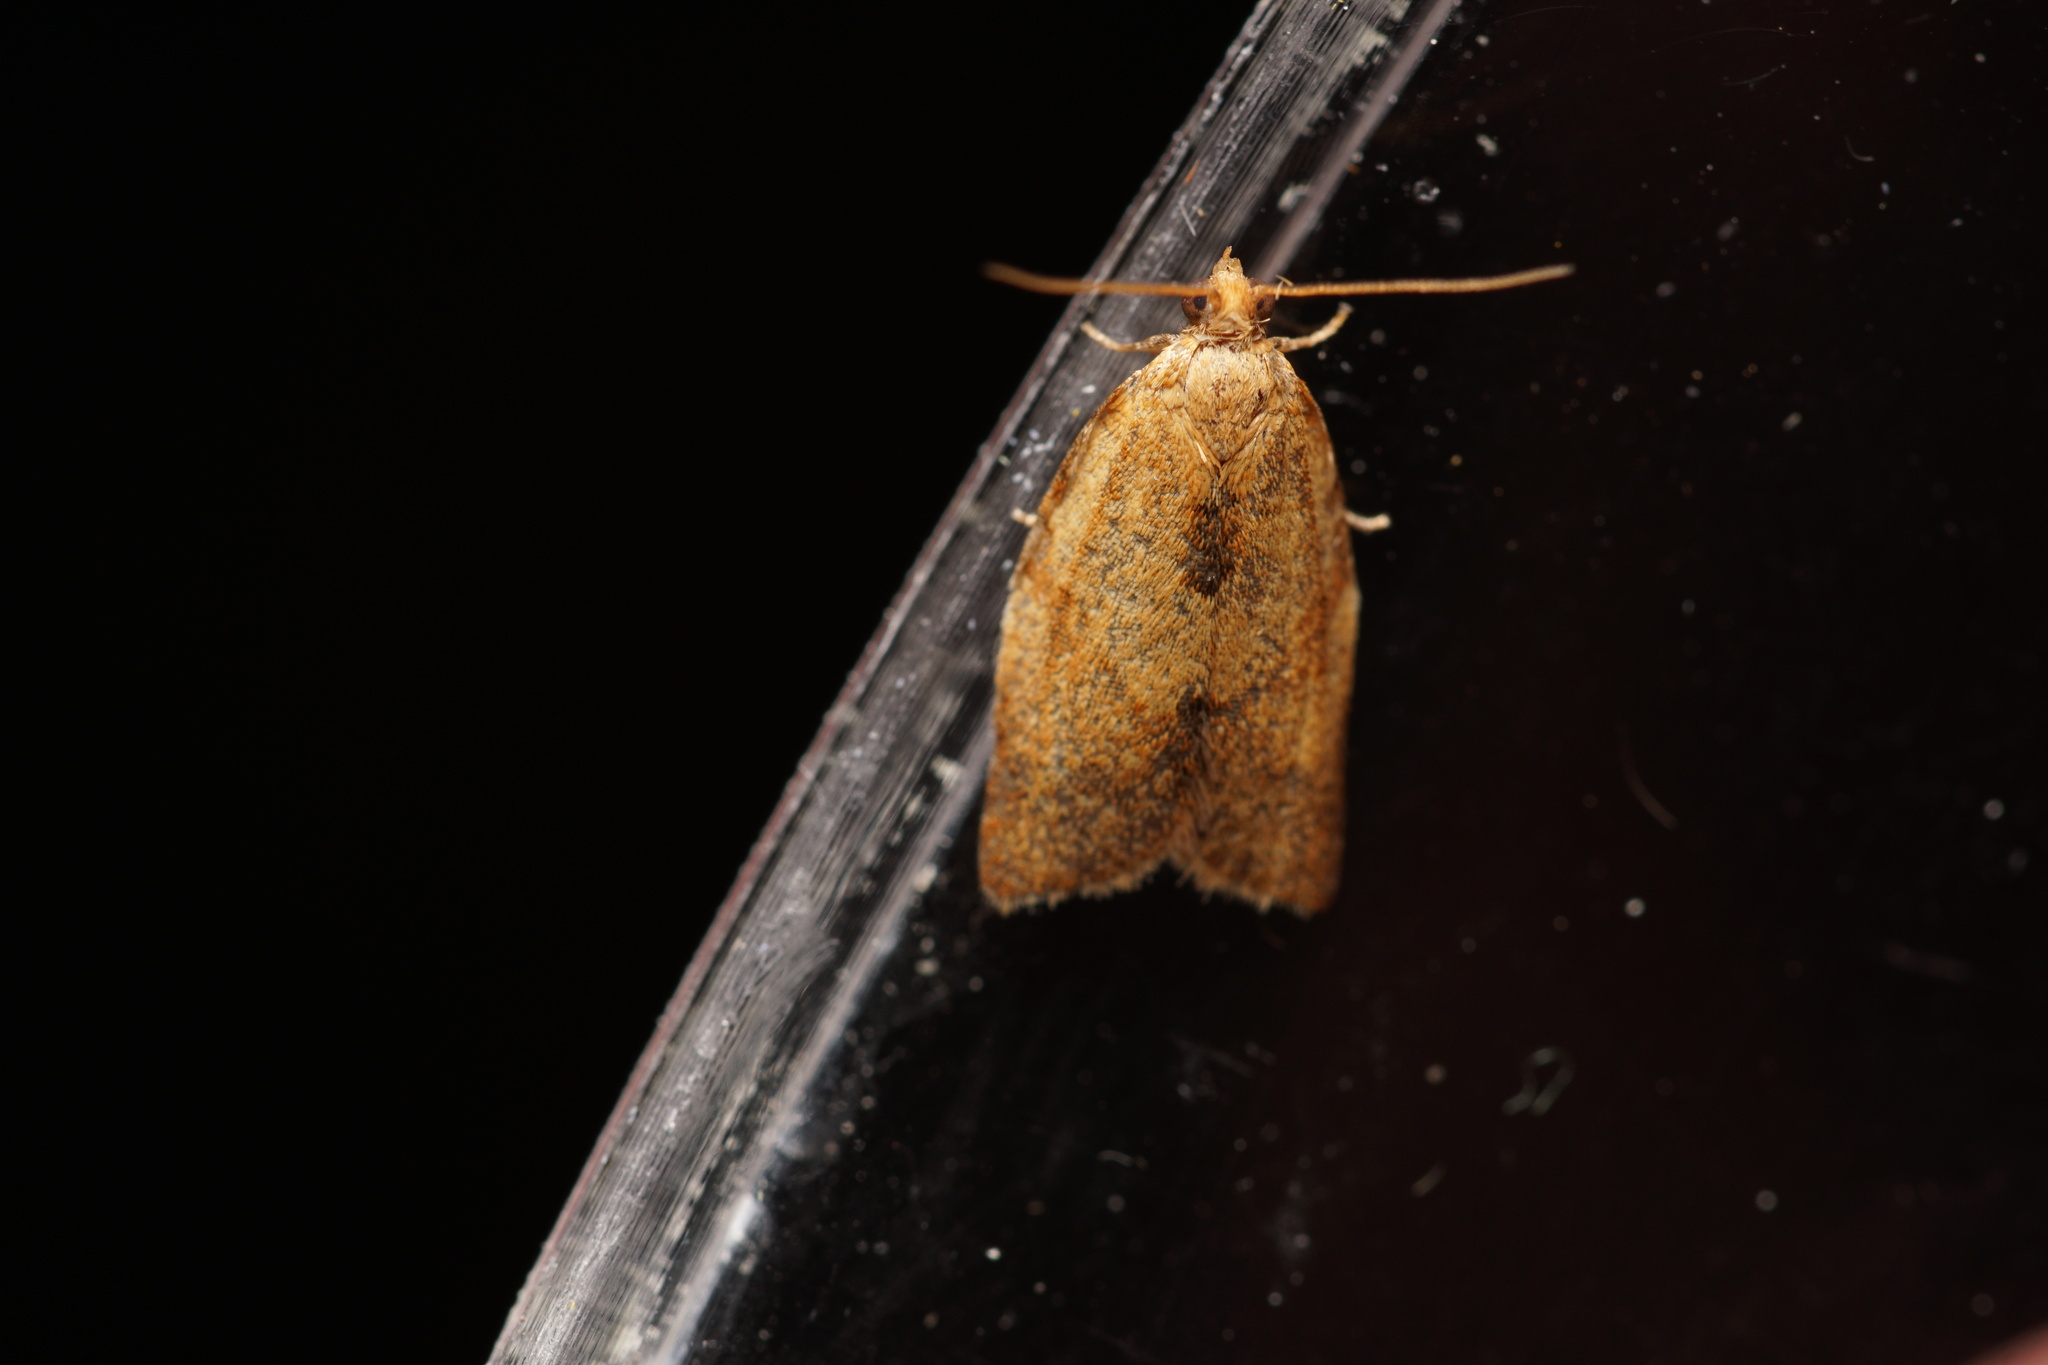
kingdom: Animalia
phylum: Arthropoda
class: Insecta
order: Lepidoptera
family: Tortricidae
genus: Clepsis
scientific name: Clepsis consimilana
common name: Privet tortrix
